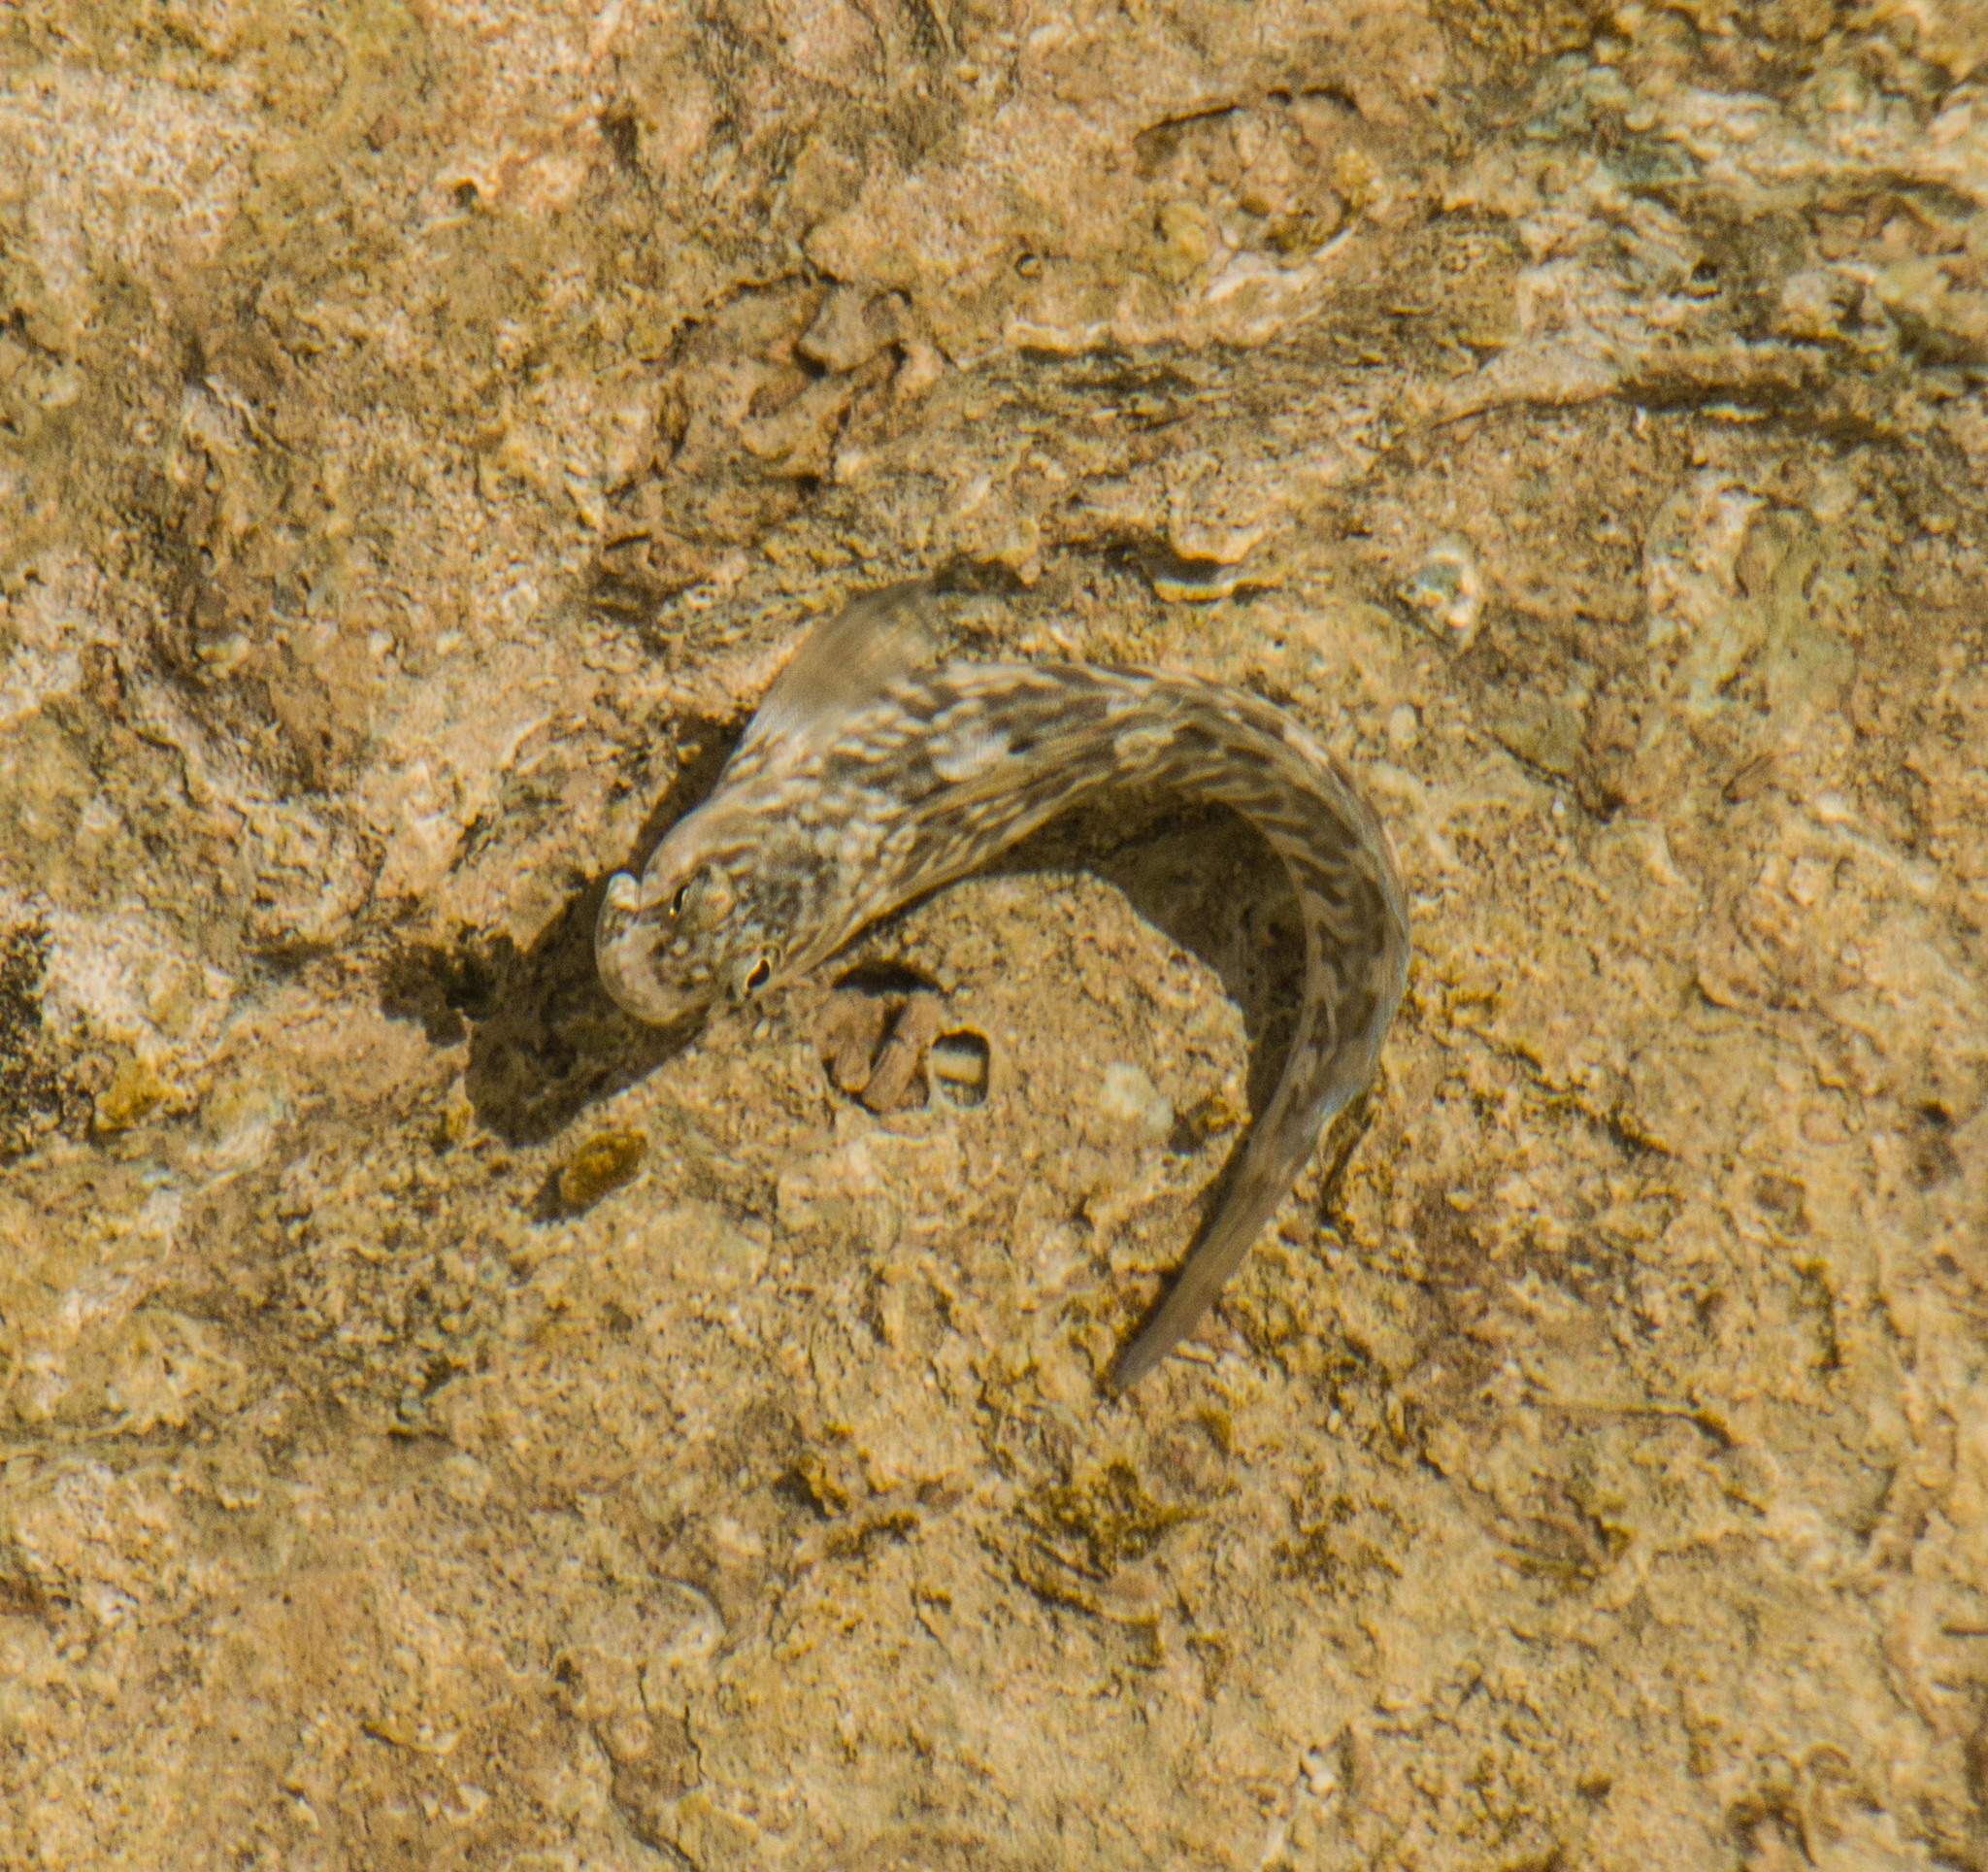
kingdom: Animalia
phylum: Chordata
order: Perciformes
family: Blenniidae
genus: Istiblennius
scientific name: Istiblennius zebra
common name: Zebra blenny
